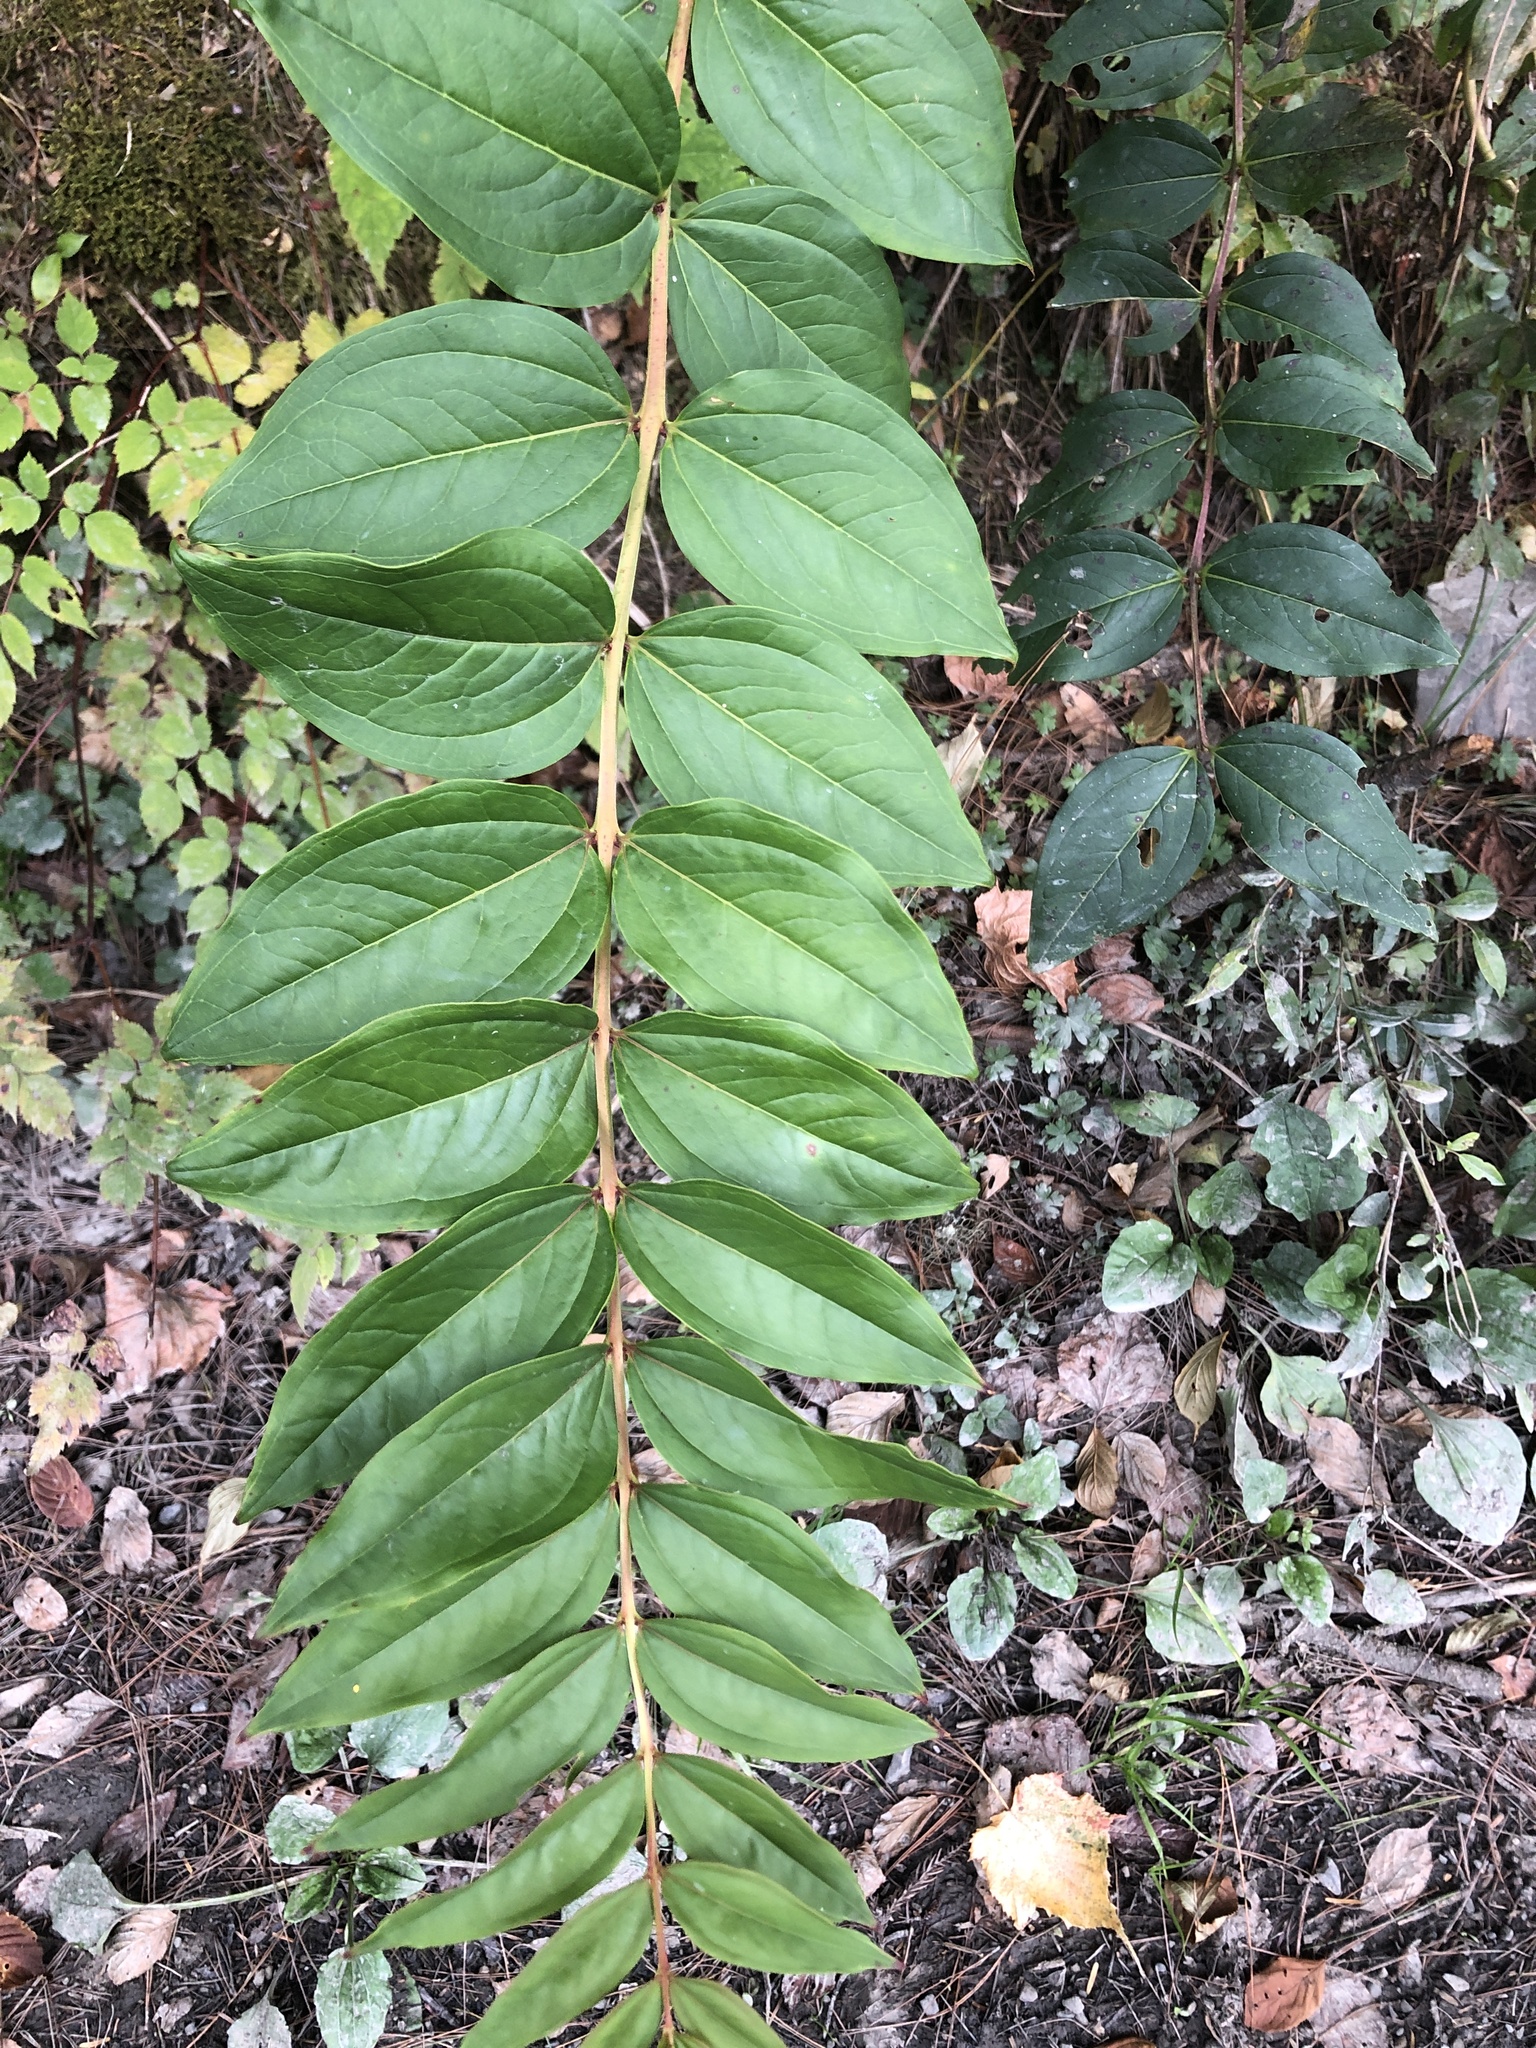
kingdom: Plantae
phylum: Tracheophyta
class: Magnoliopsida
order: Cucurbitales
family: Coriariaceae
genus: Coriaria
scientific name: Coriaria japonica
